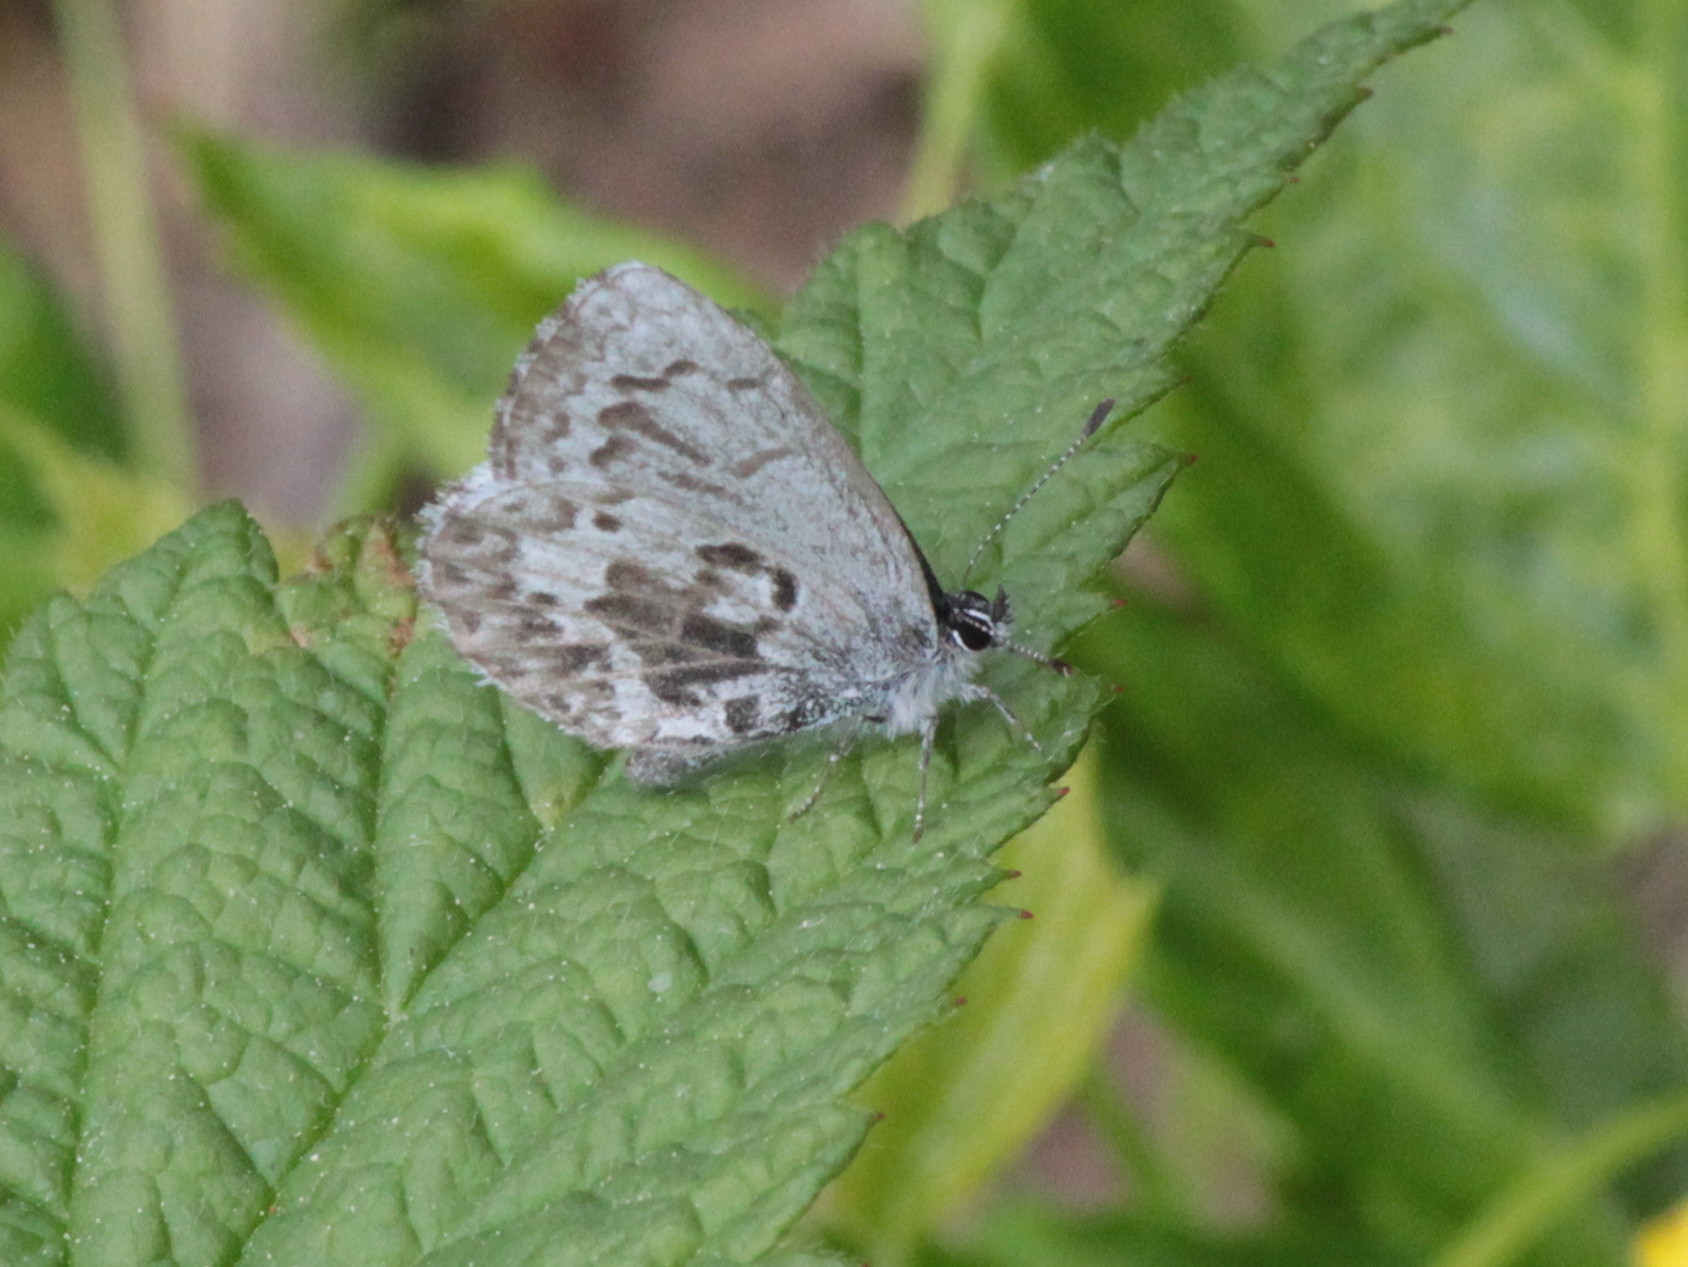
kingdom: Animalia
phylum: Arthropoda
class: Insecta
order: Lepidoptera
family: Lycaenidae
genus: Celastrina
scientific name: Celastrina lucia
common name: Lucia azure
